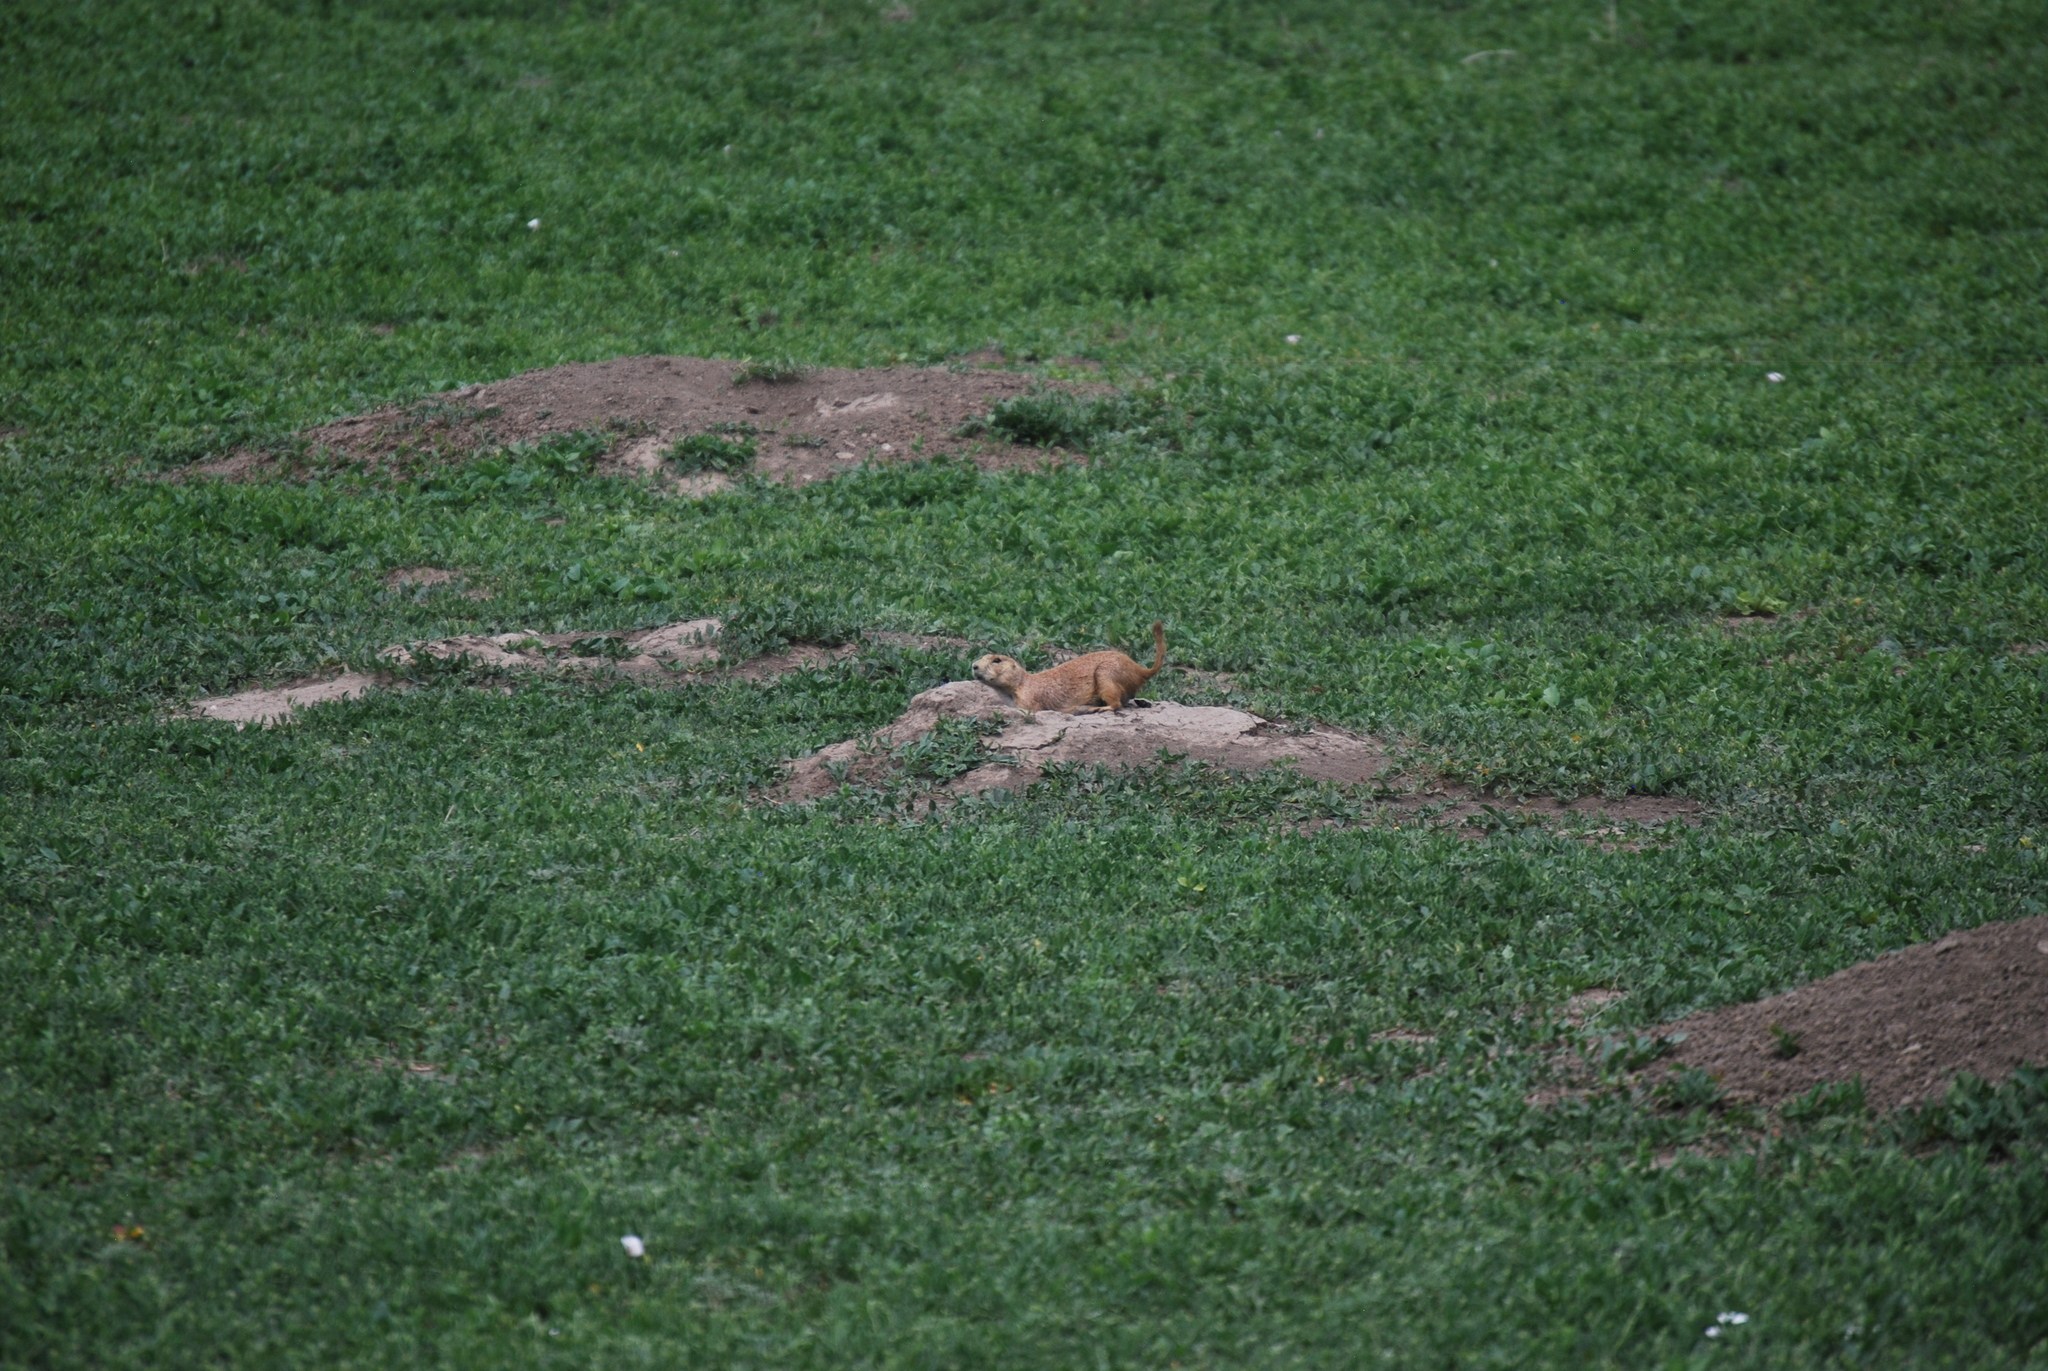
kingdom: Animalia
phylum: Chordata
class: Mammalia
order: Rodentia
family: Sciuridae
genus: Cynomys
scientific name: Cynomys ludovicianus
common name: Black-tailed prairie dog
